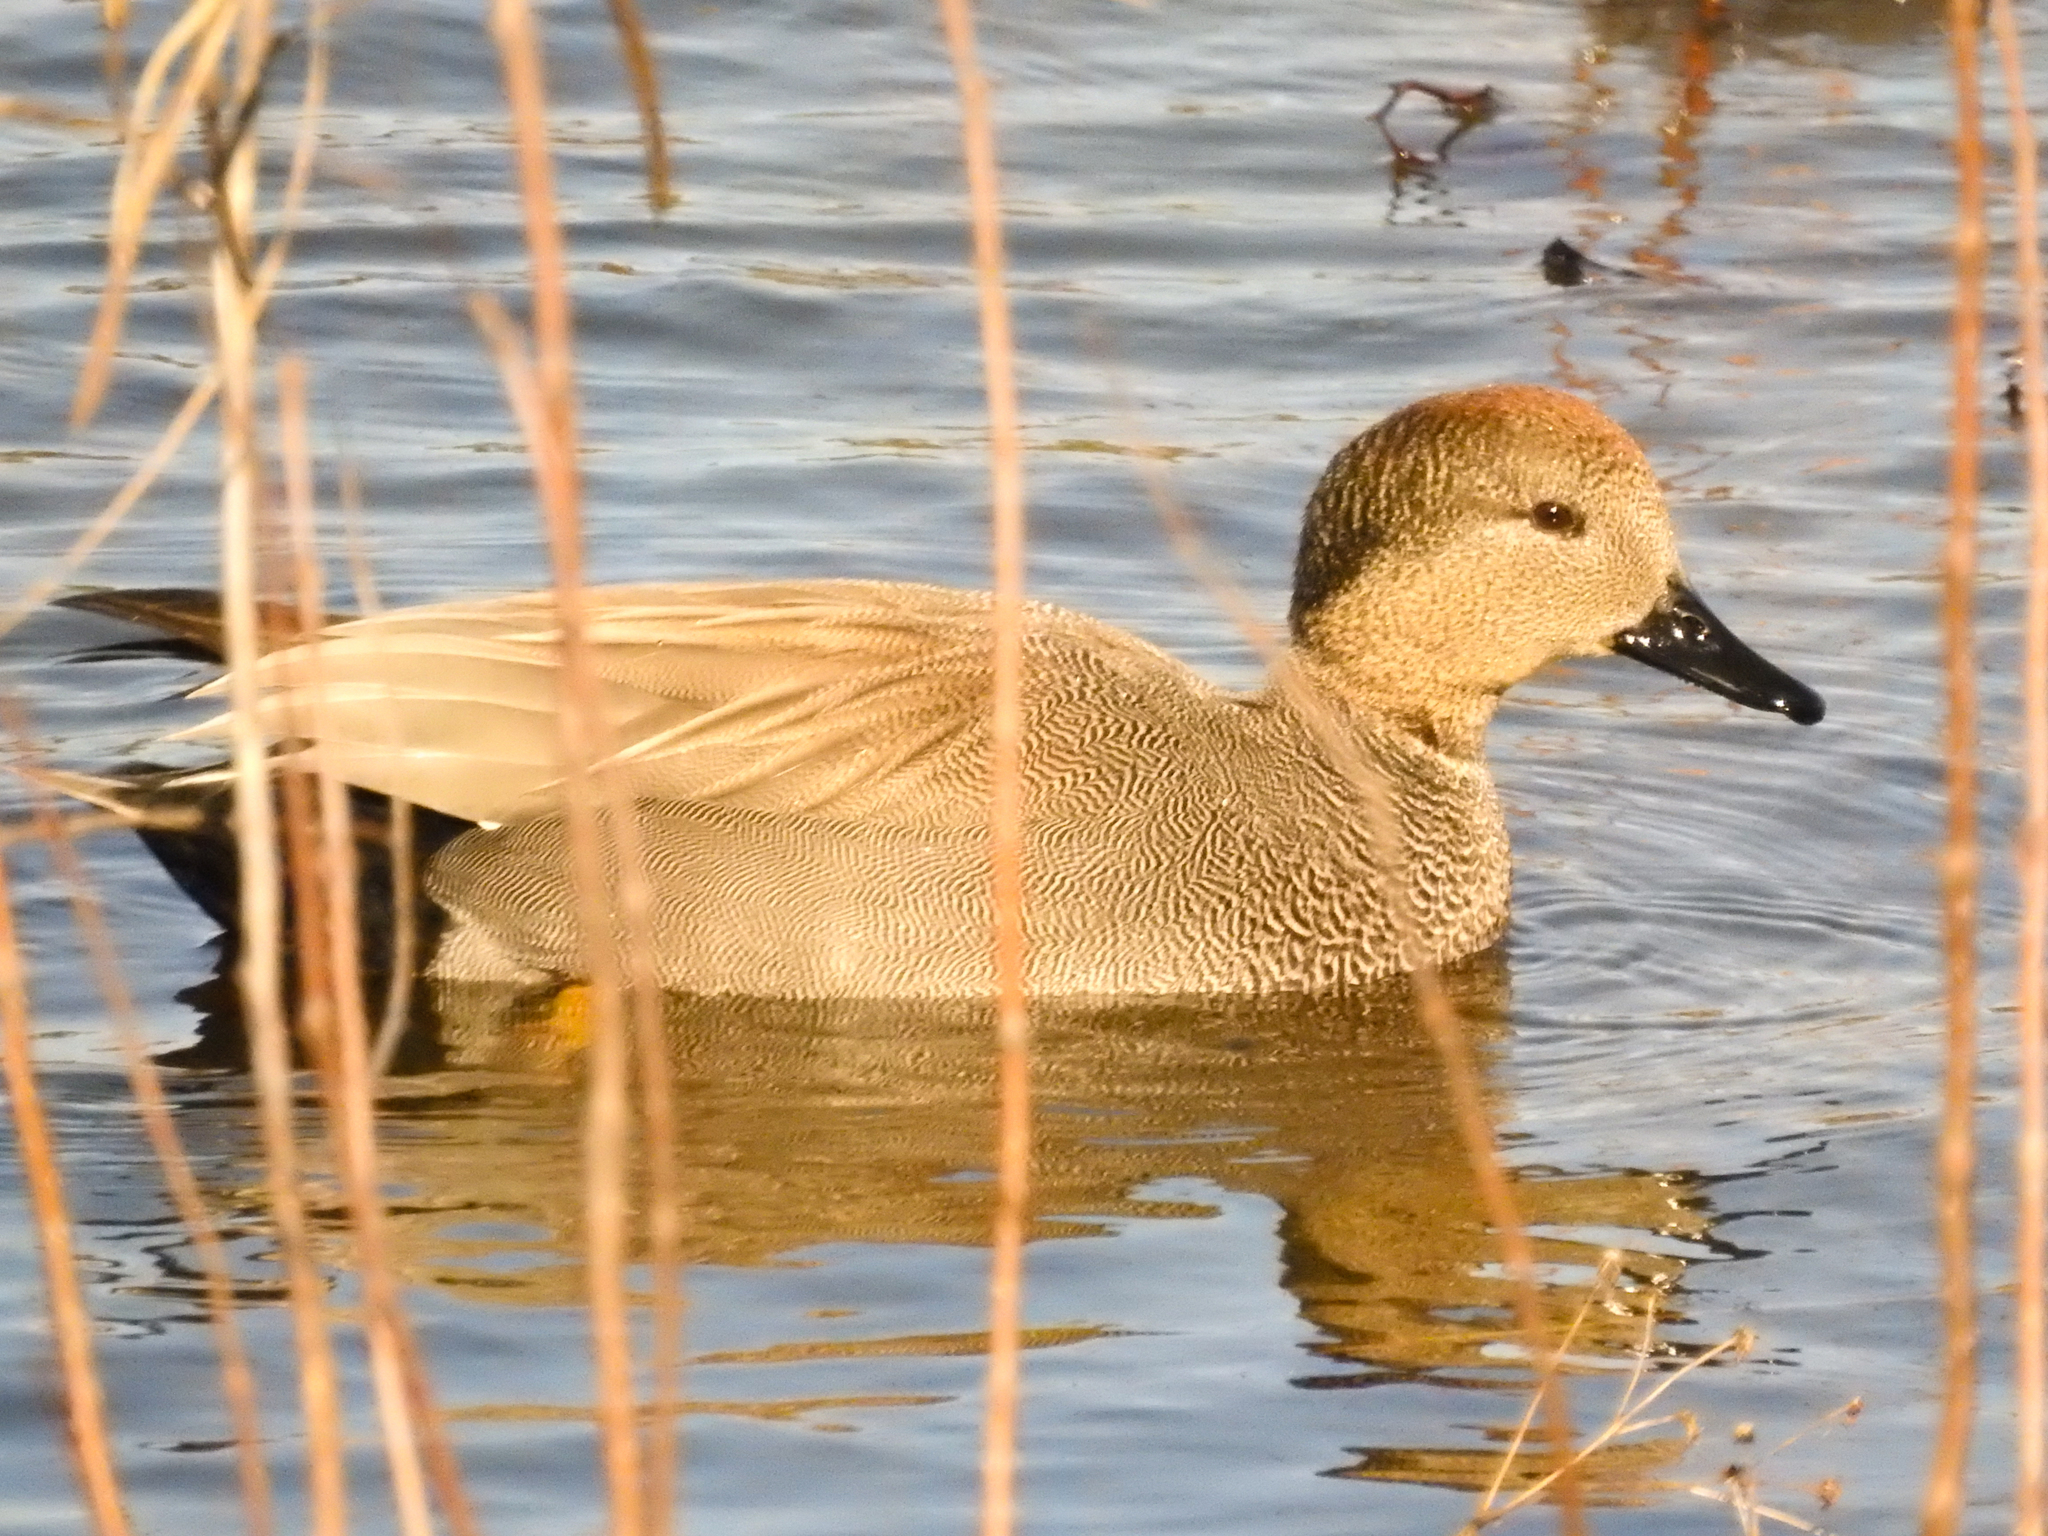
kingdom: Animalia
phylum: Chordata
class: Aves
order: Anseriformes
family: Anatidae
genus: Mareca
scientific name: Mareca strepera
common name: Gadwall
